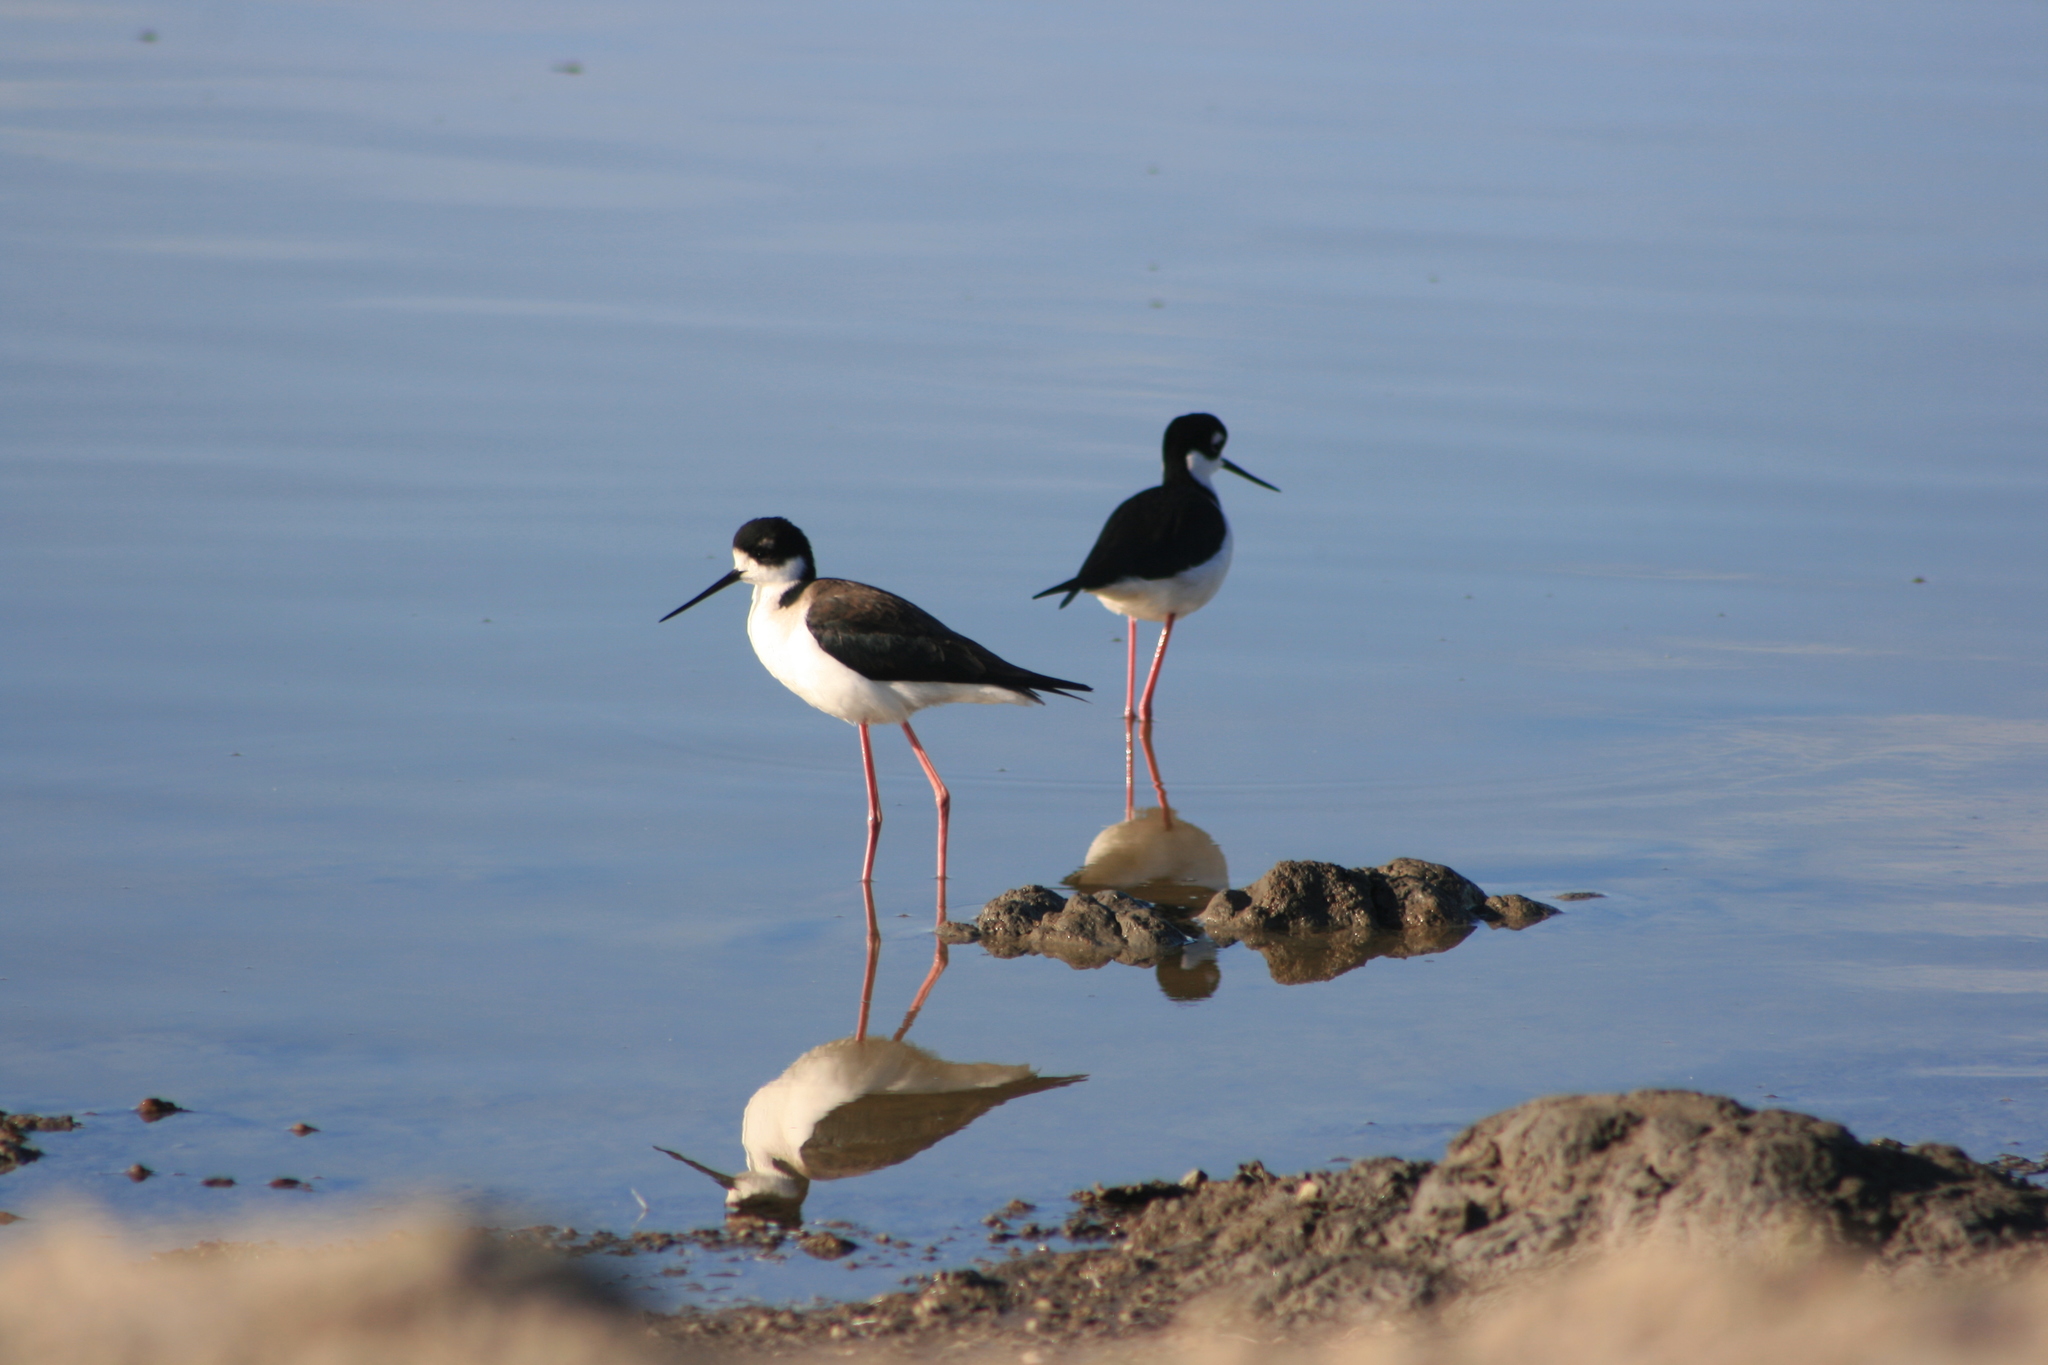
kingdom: Animalia
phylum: Chordata
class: Aves
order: Charadriiformes
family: Recurvirostridae
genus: Himantopus
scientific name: Himantopus mexicanus
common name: Black-necked stilt
